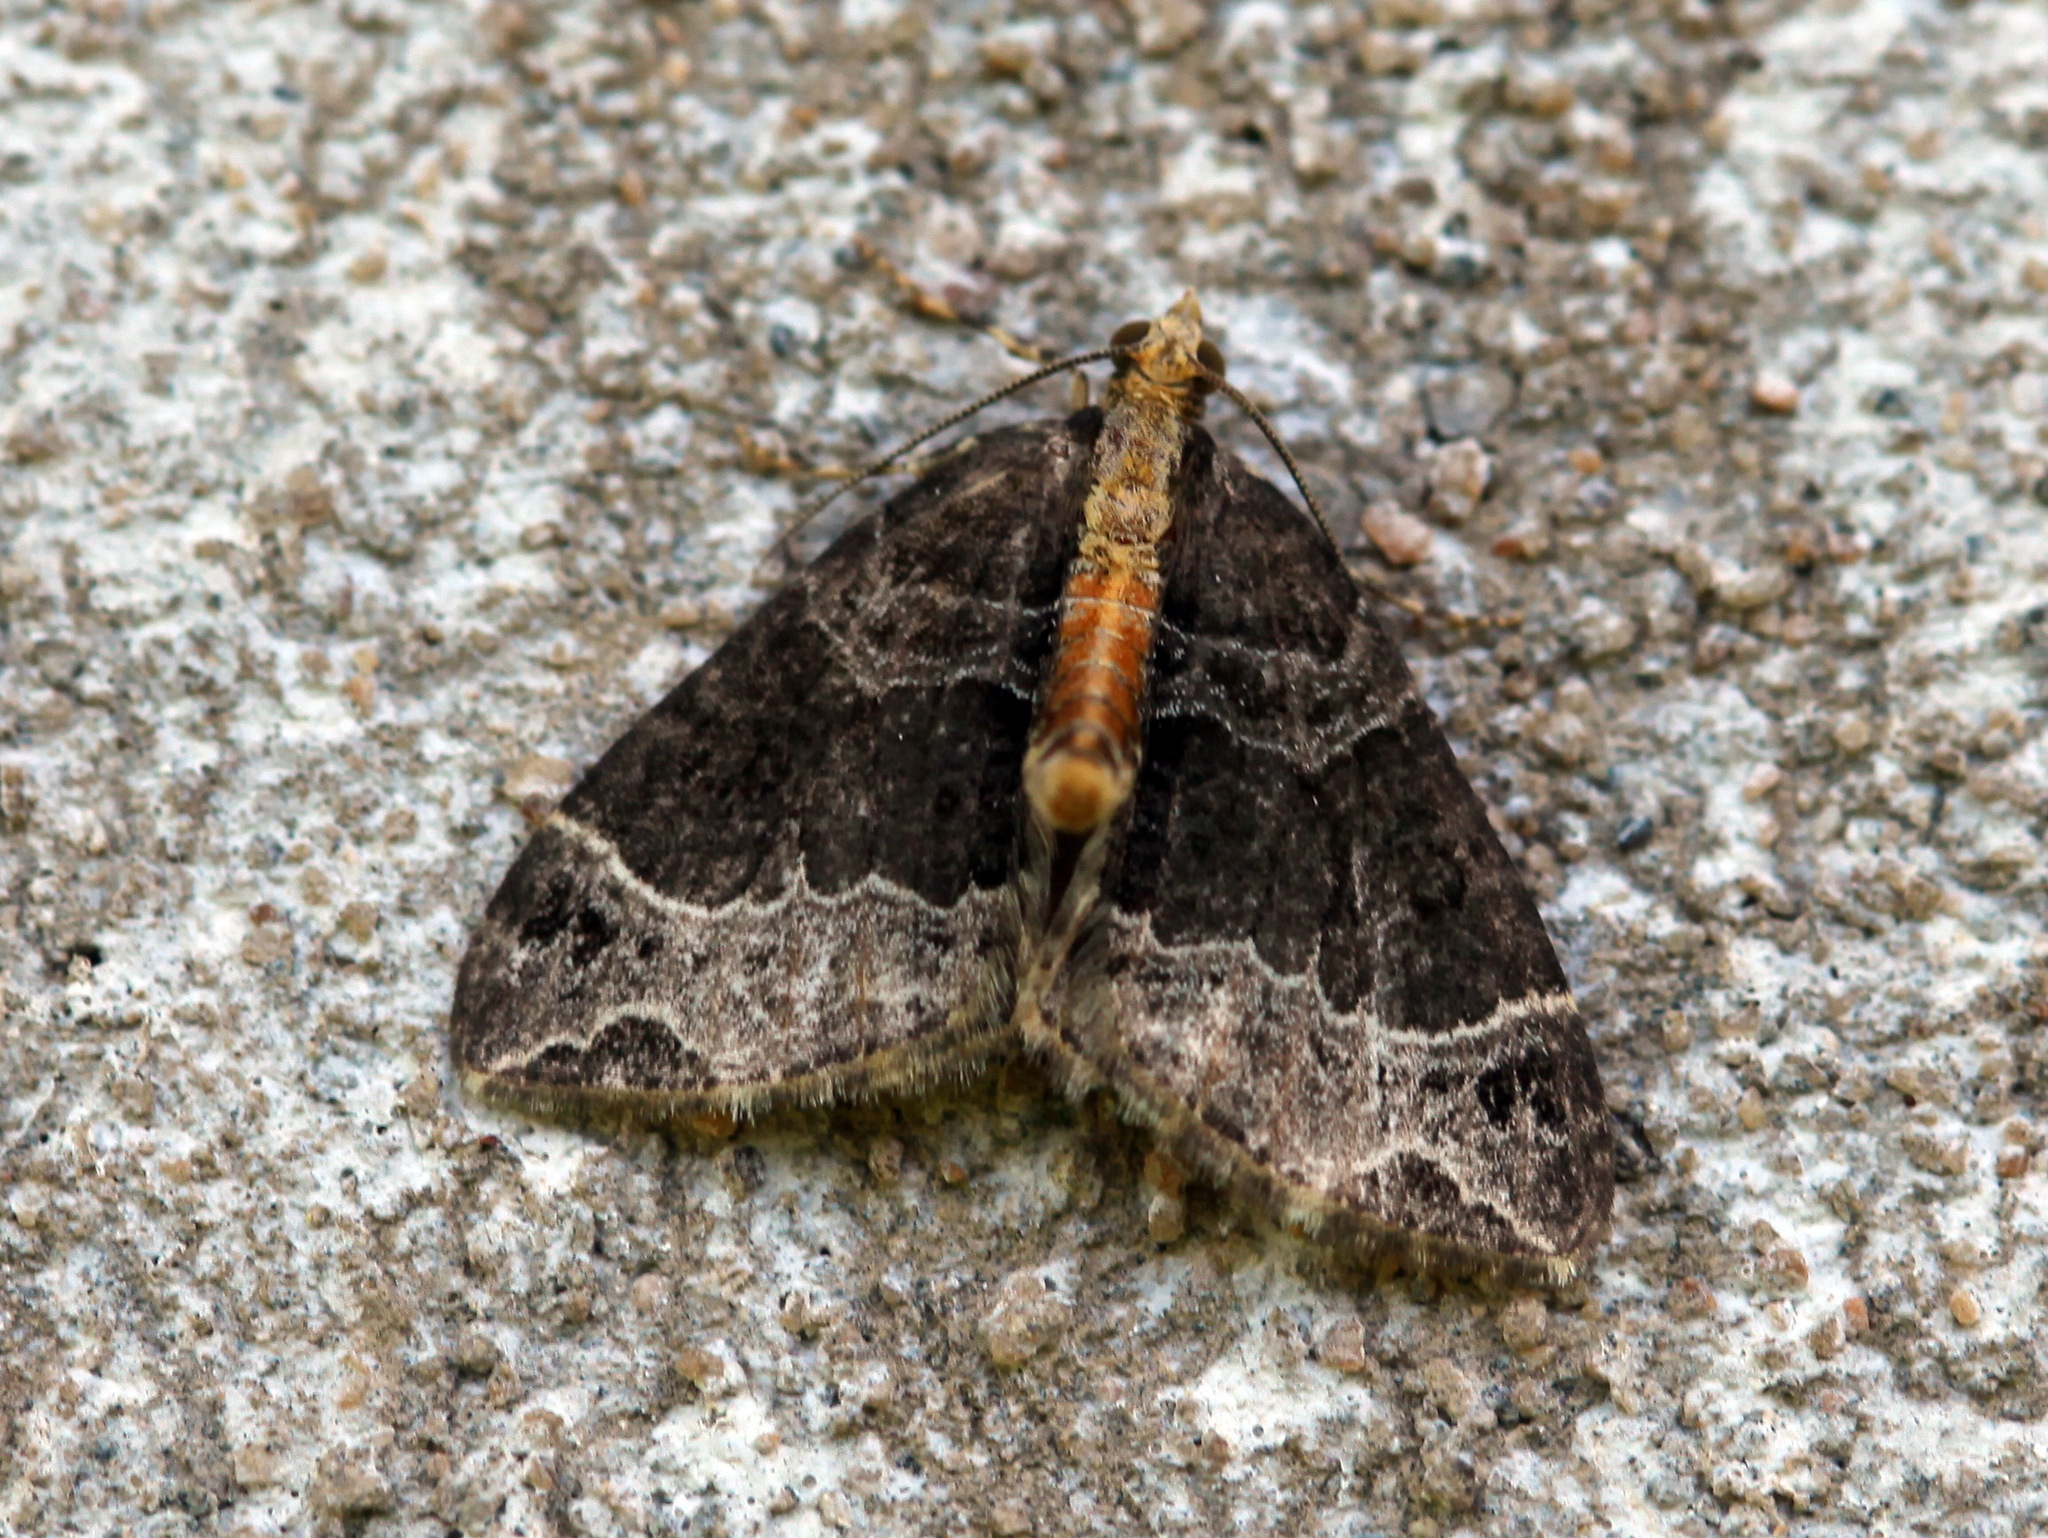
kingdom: Animalia
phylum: Arthropoda
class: Insecta
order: Lepidoptera
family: Geometridae
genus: Ecliptopera
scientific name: Ecliptopera capitata
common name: Yellow-headed phoenix
